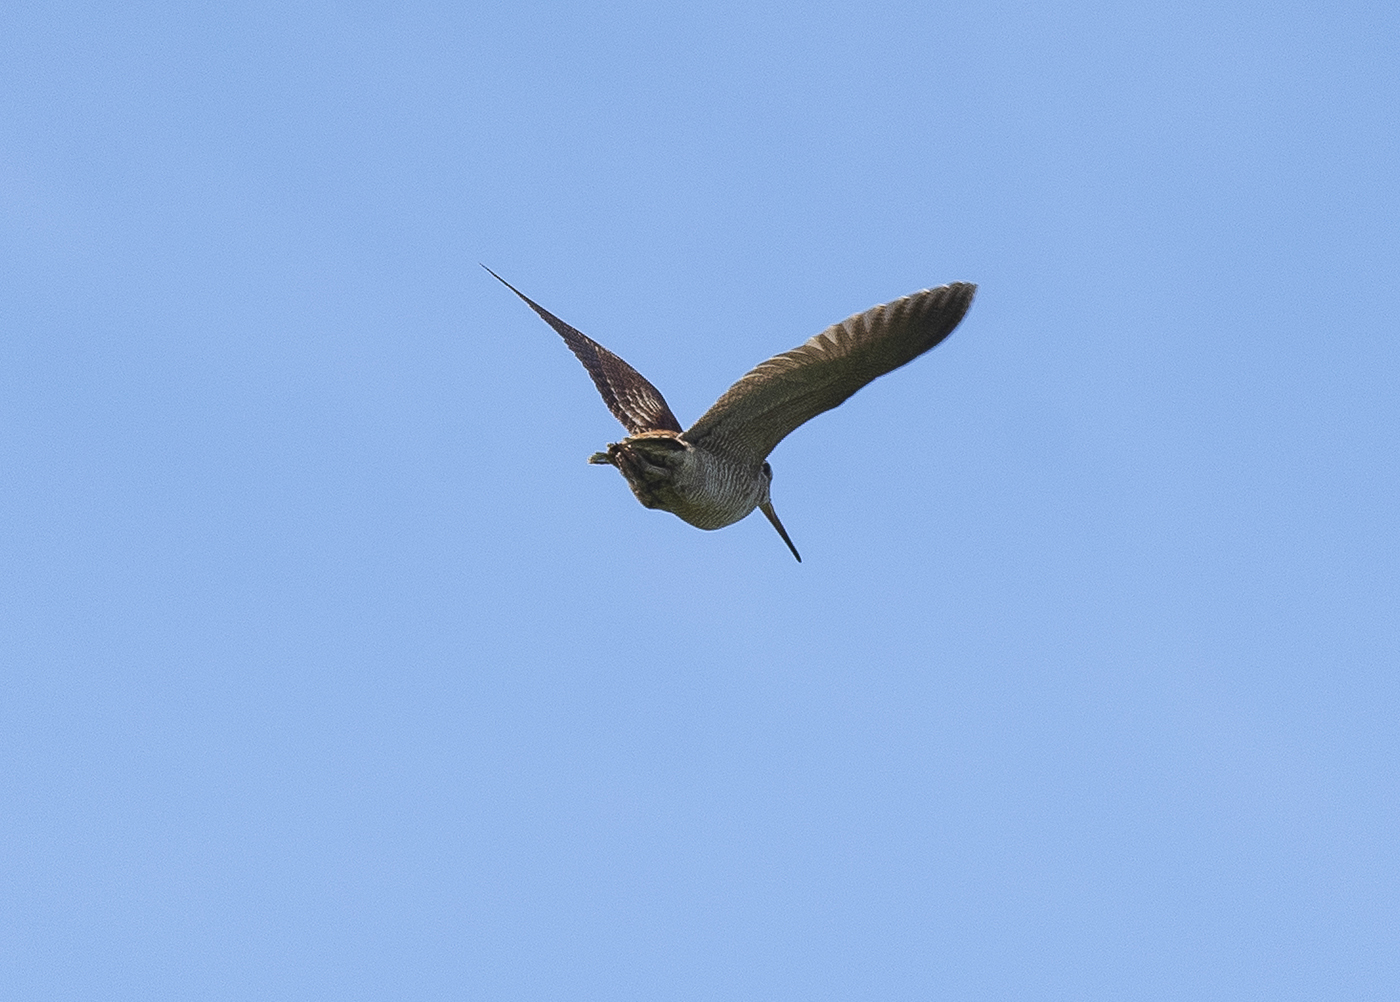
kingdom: Animalia
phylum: Chordata
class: Aves
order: Charadriiformes
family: Scolopacidae
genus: Scolopax
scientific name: Scolopax rusticola
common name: Eurasian woodcock
